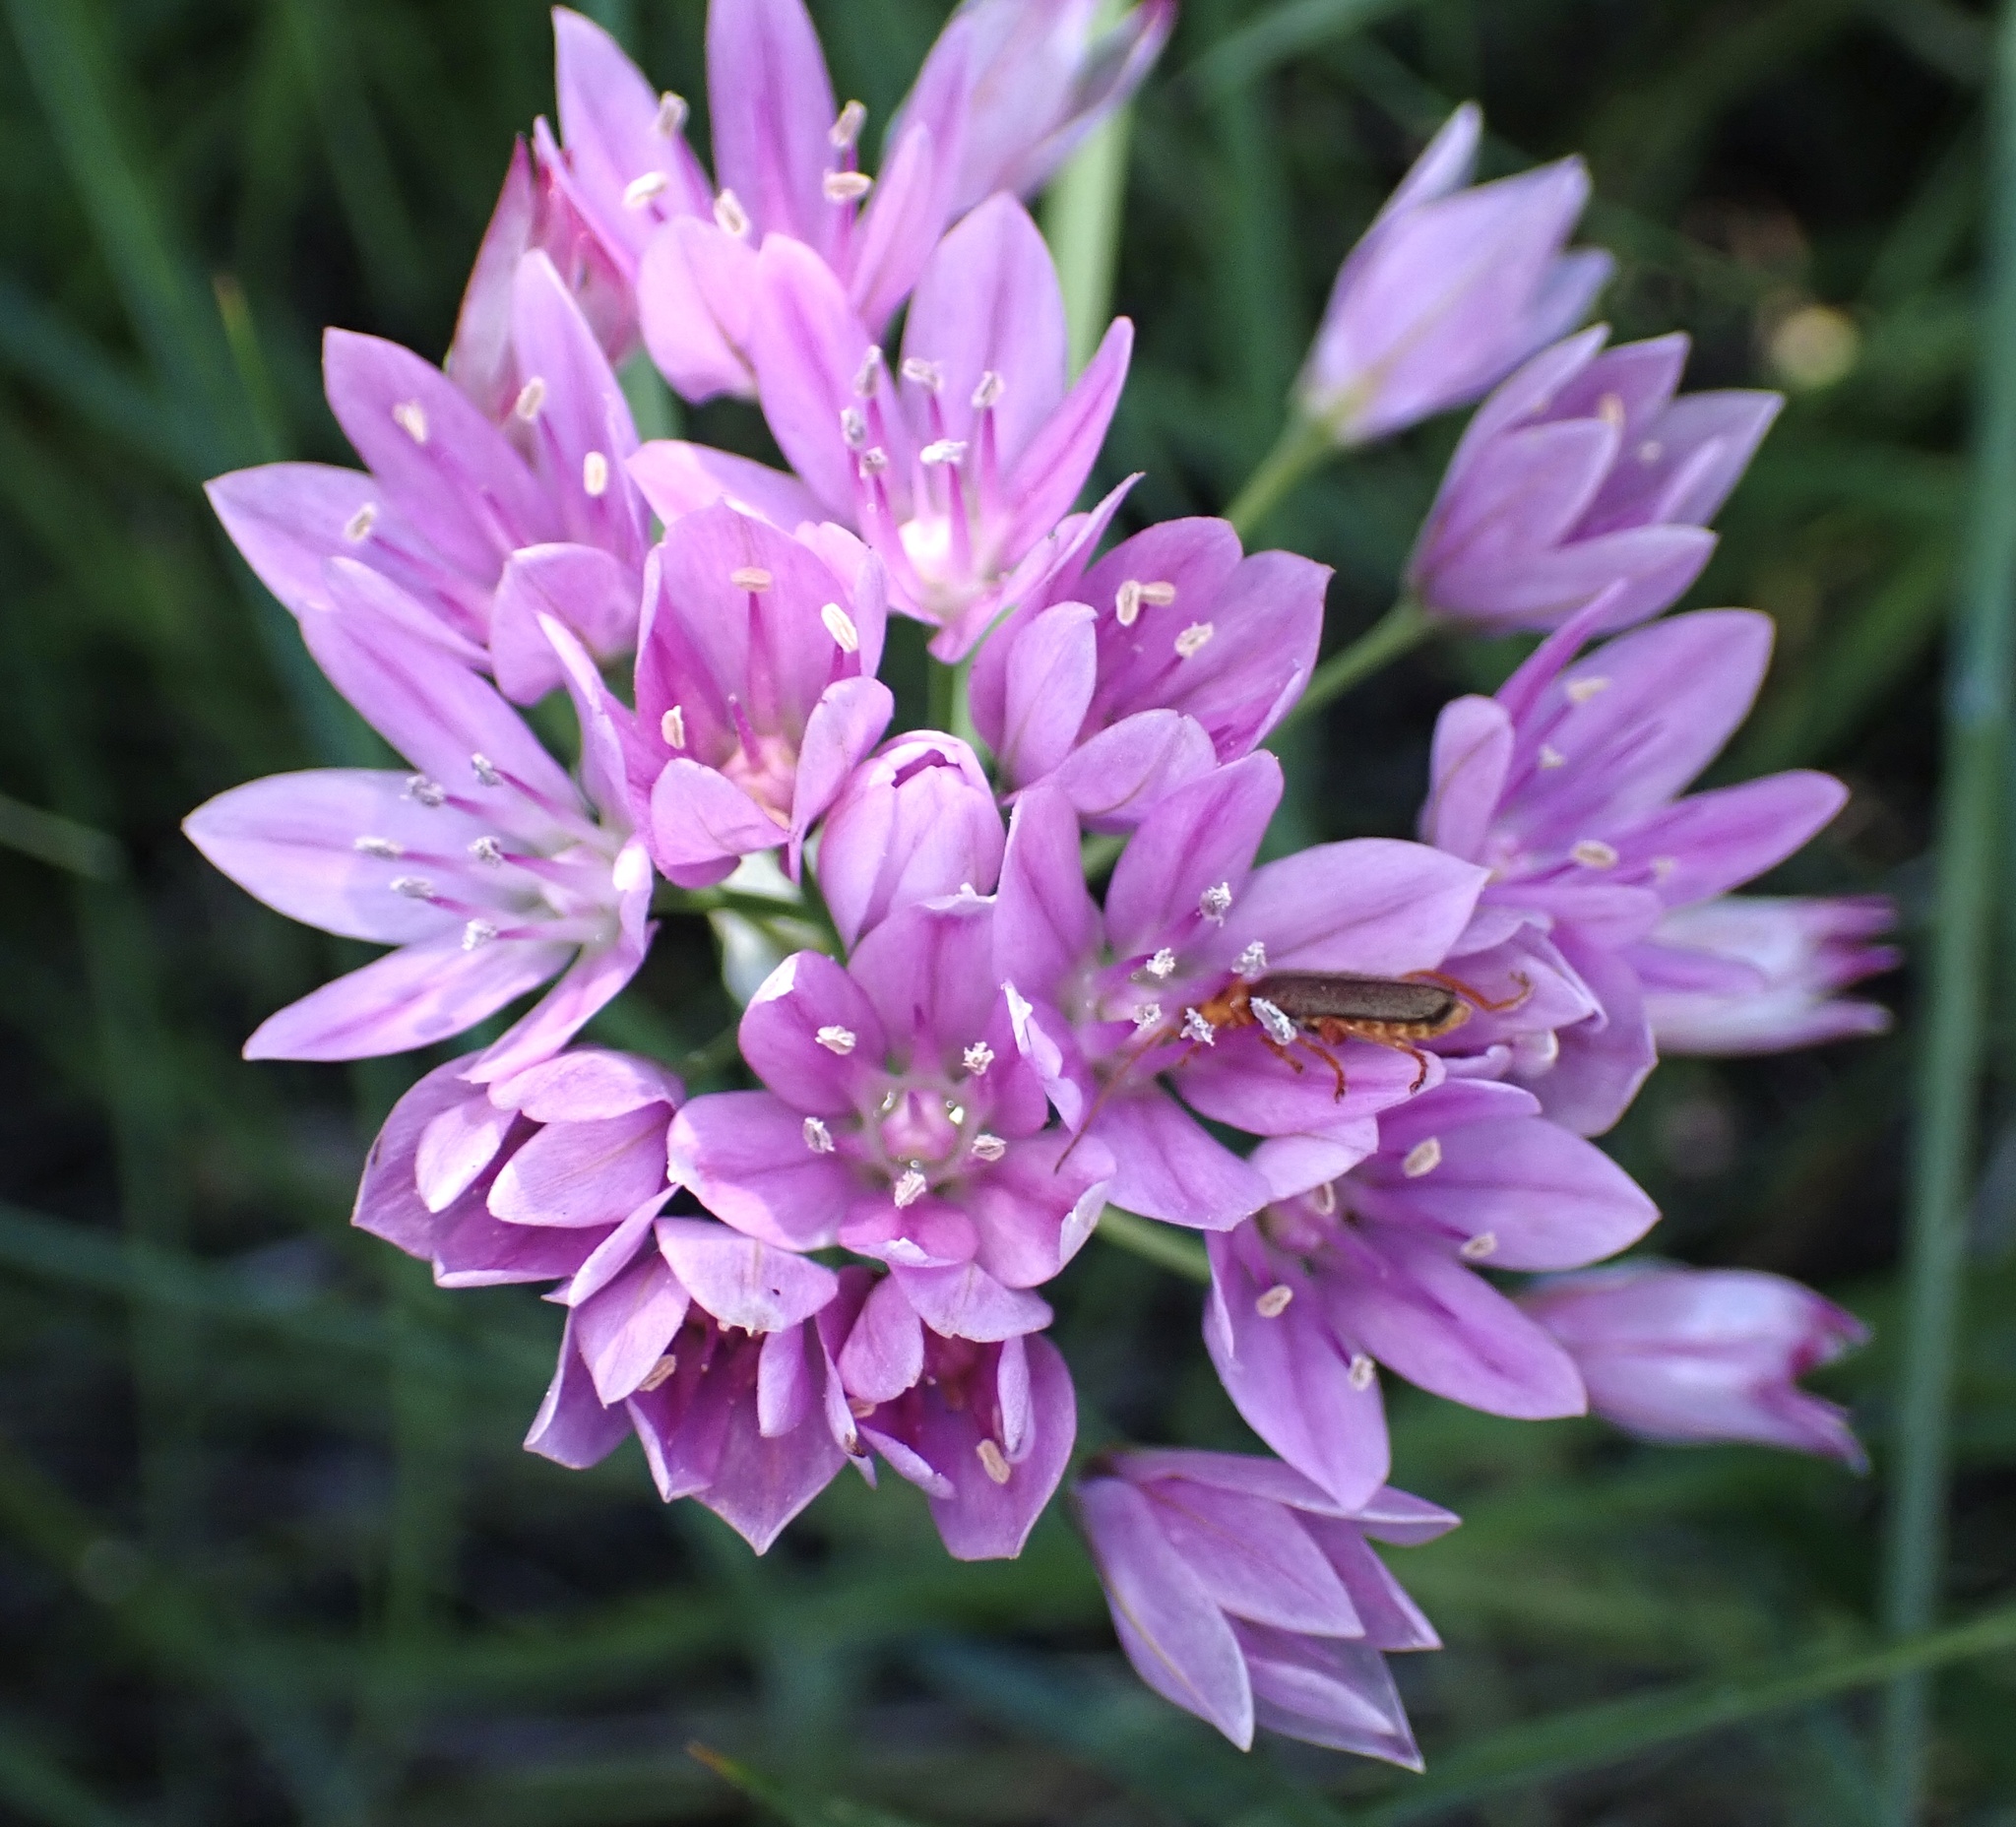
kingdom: Plantae
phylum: Tracheophyta
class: Liliopsida
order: Asparagales
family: Amaryllidaceae
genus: Allium
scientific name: Allium unifolium
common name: American garlic
